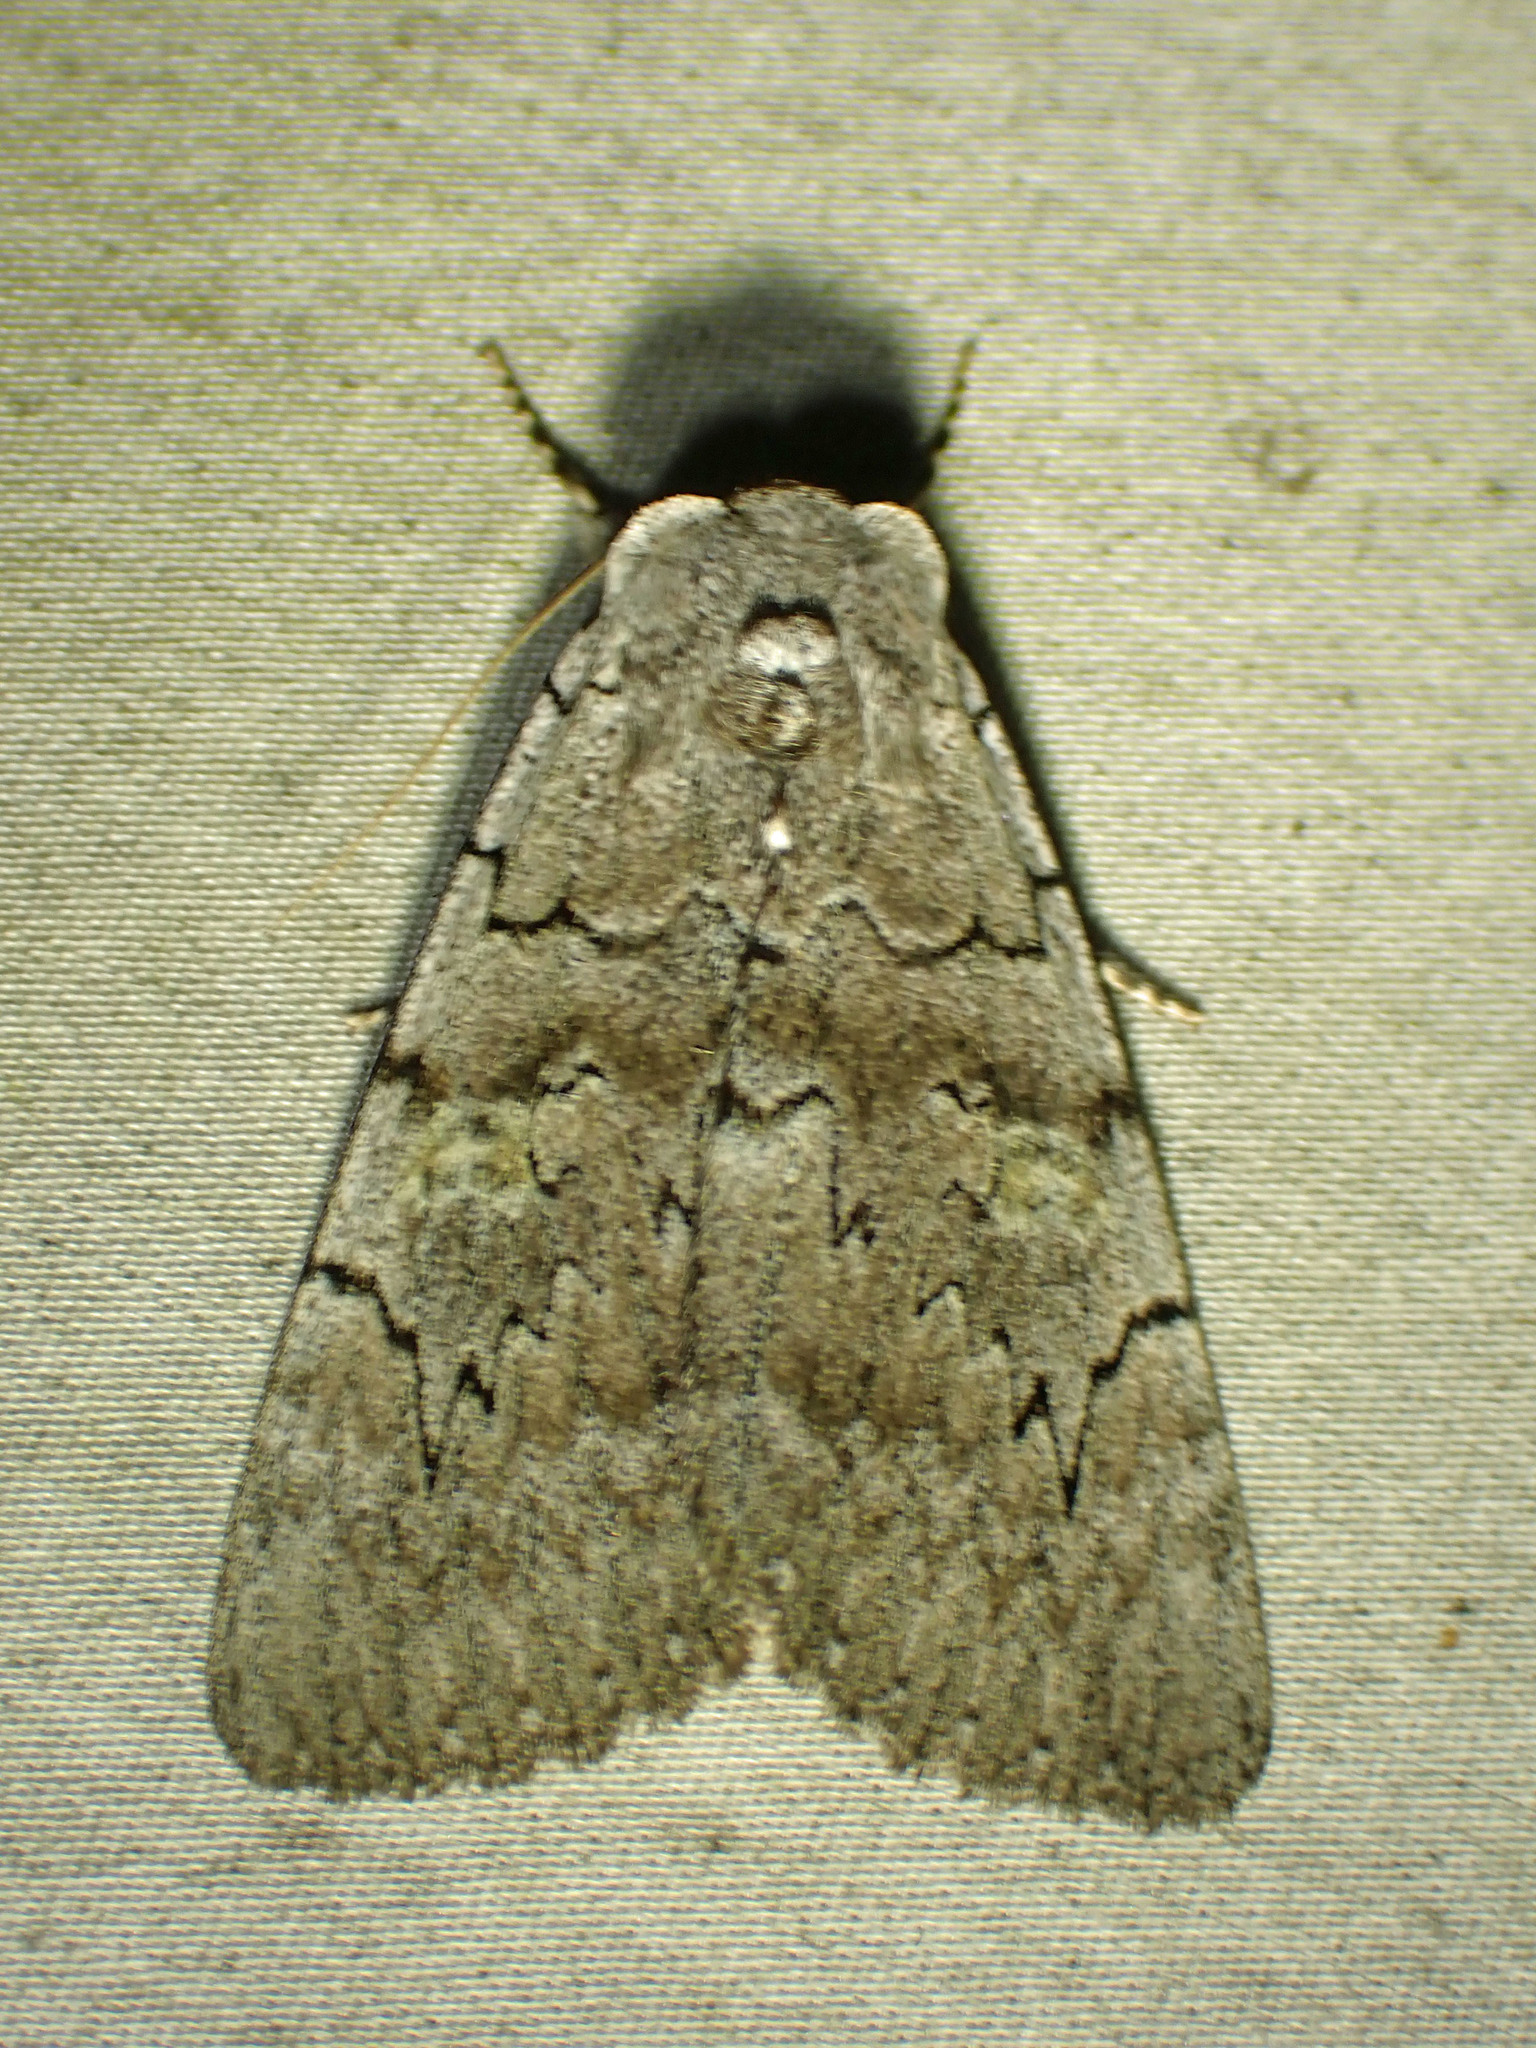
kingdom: Animalia
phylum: Arthropoda
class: Insecta
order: Lepidoptera
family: Erebidae
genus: Catocala
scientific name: Catocala concumbens
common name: Pink underwing
